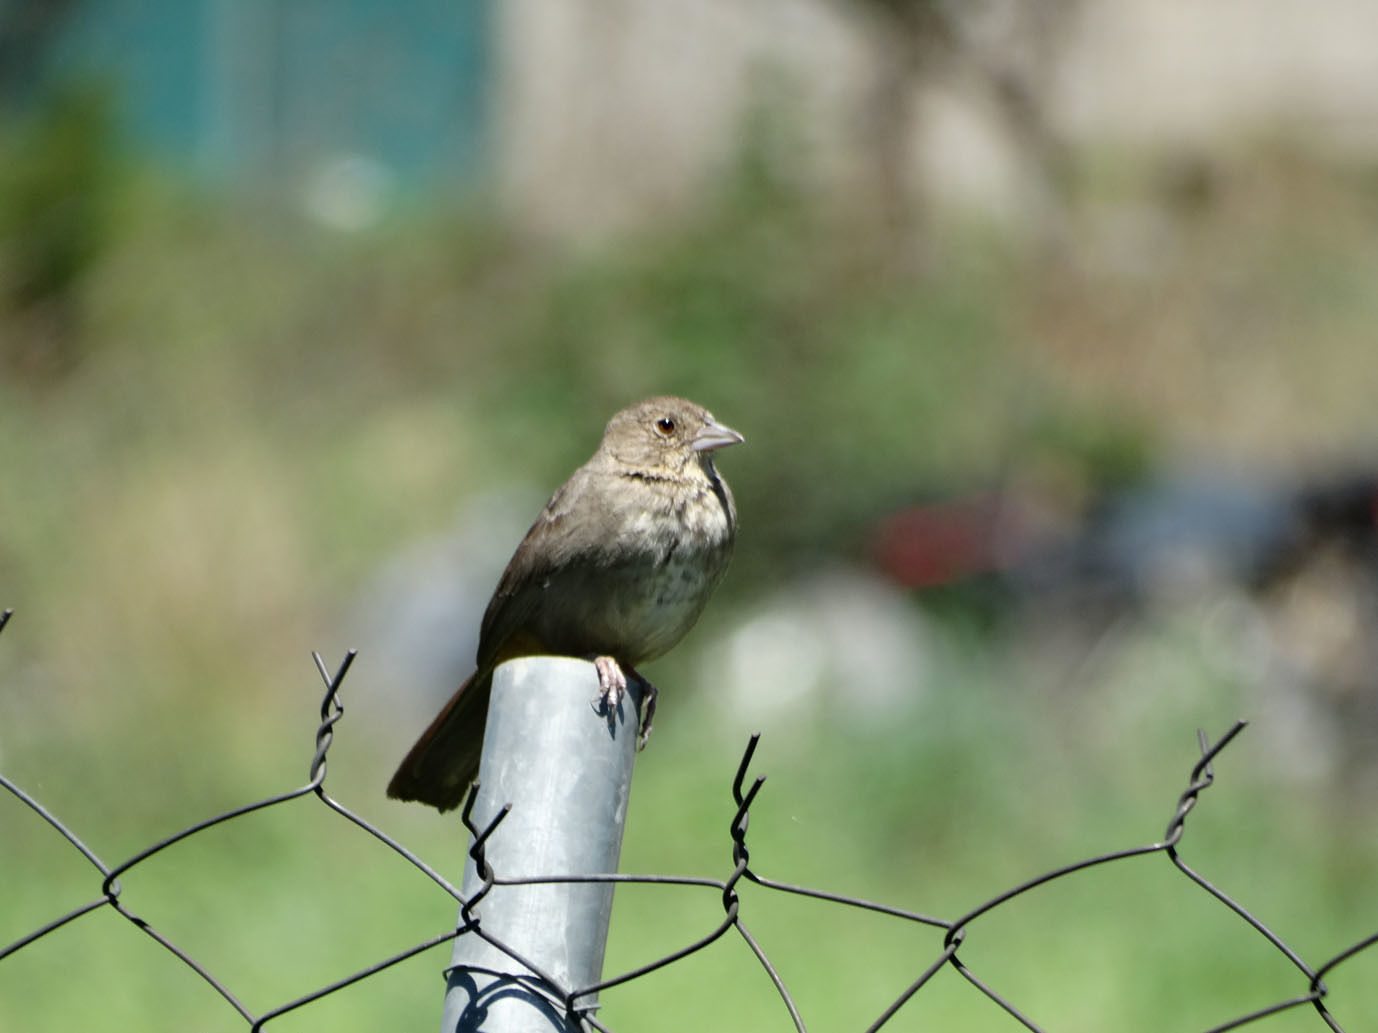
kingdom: Animalia
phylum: Chordata
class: Aves
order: Passeriformes
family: Passerellidae
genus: Melozone
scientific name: Melozone fusca
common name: Canyon towhee
